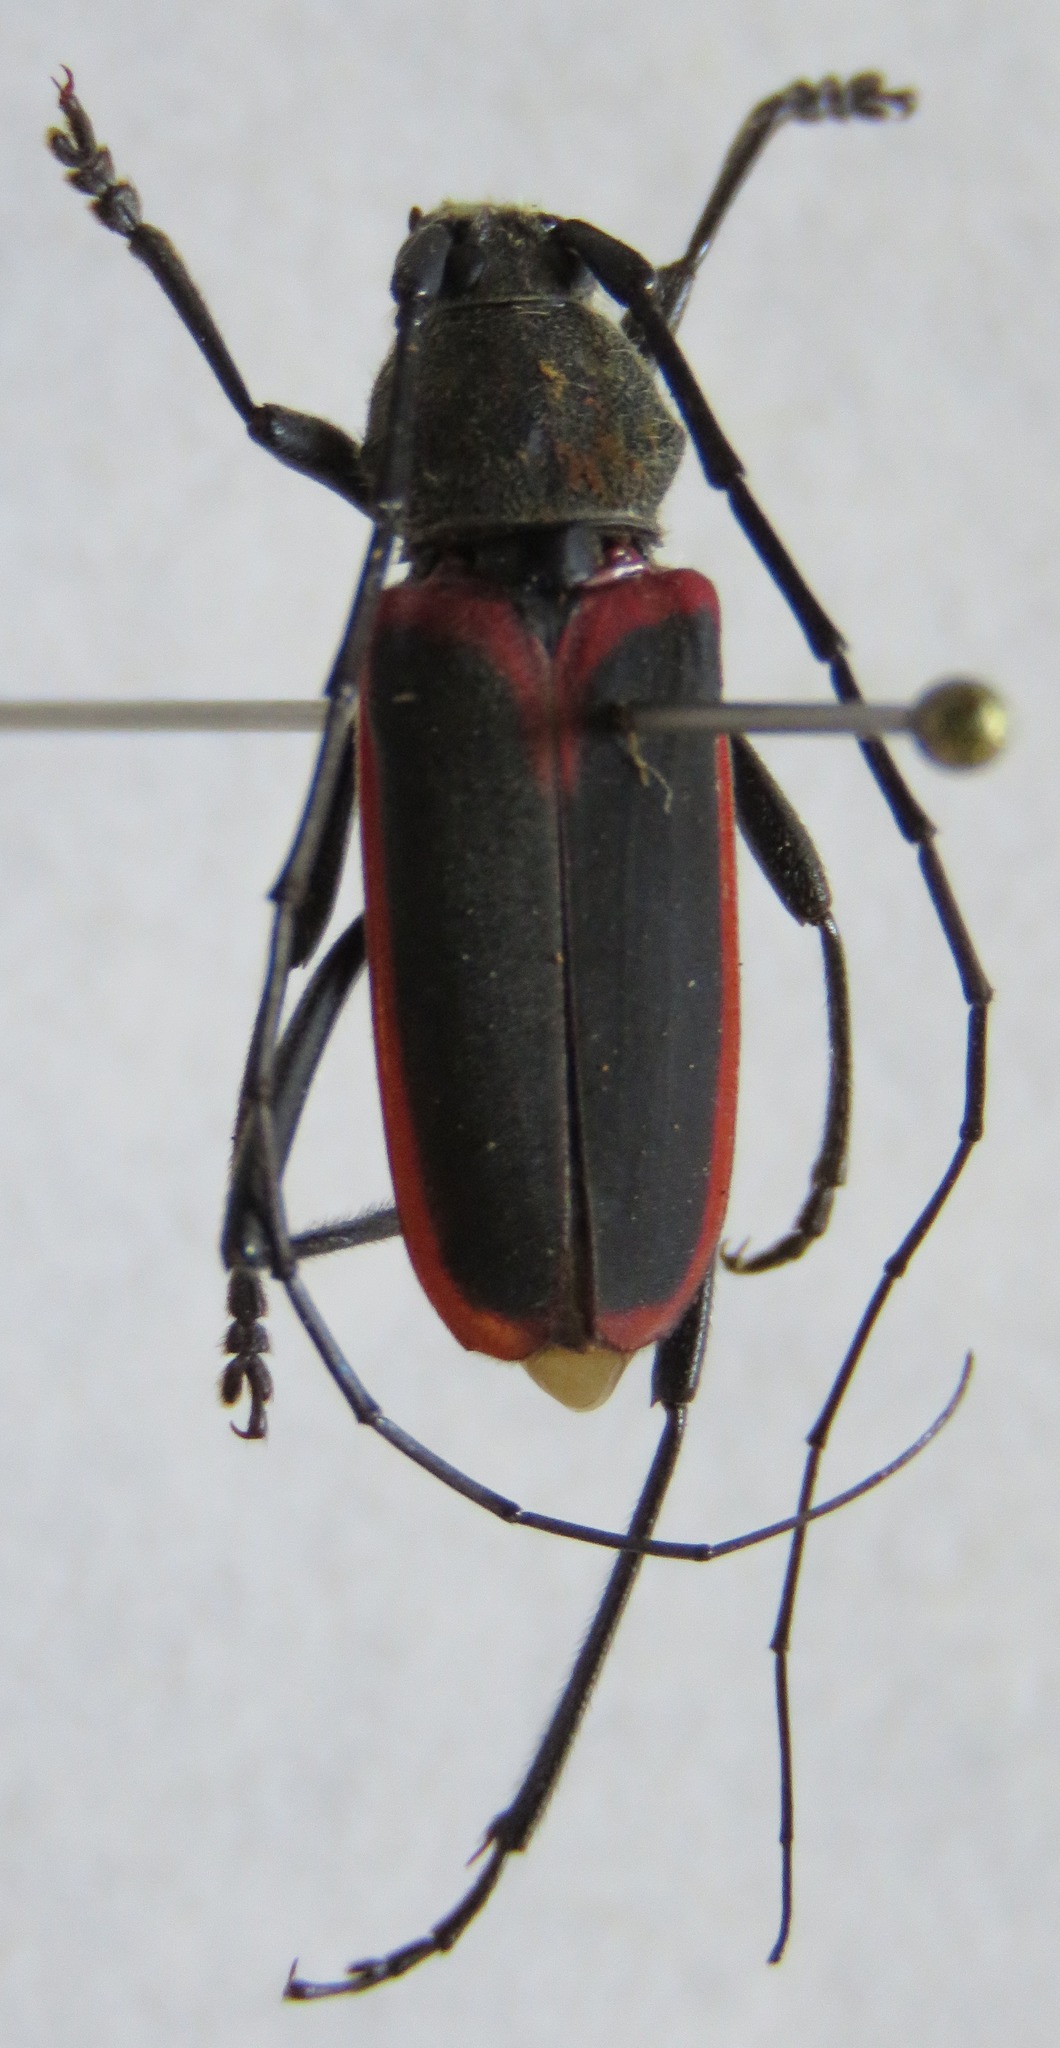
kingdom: Animalia
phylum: Arthropoda
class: Insecta
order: Coleoptera
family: Cerambycidae
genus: Metaleptus
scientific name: Metaleptus angulatus
